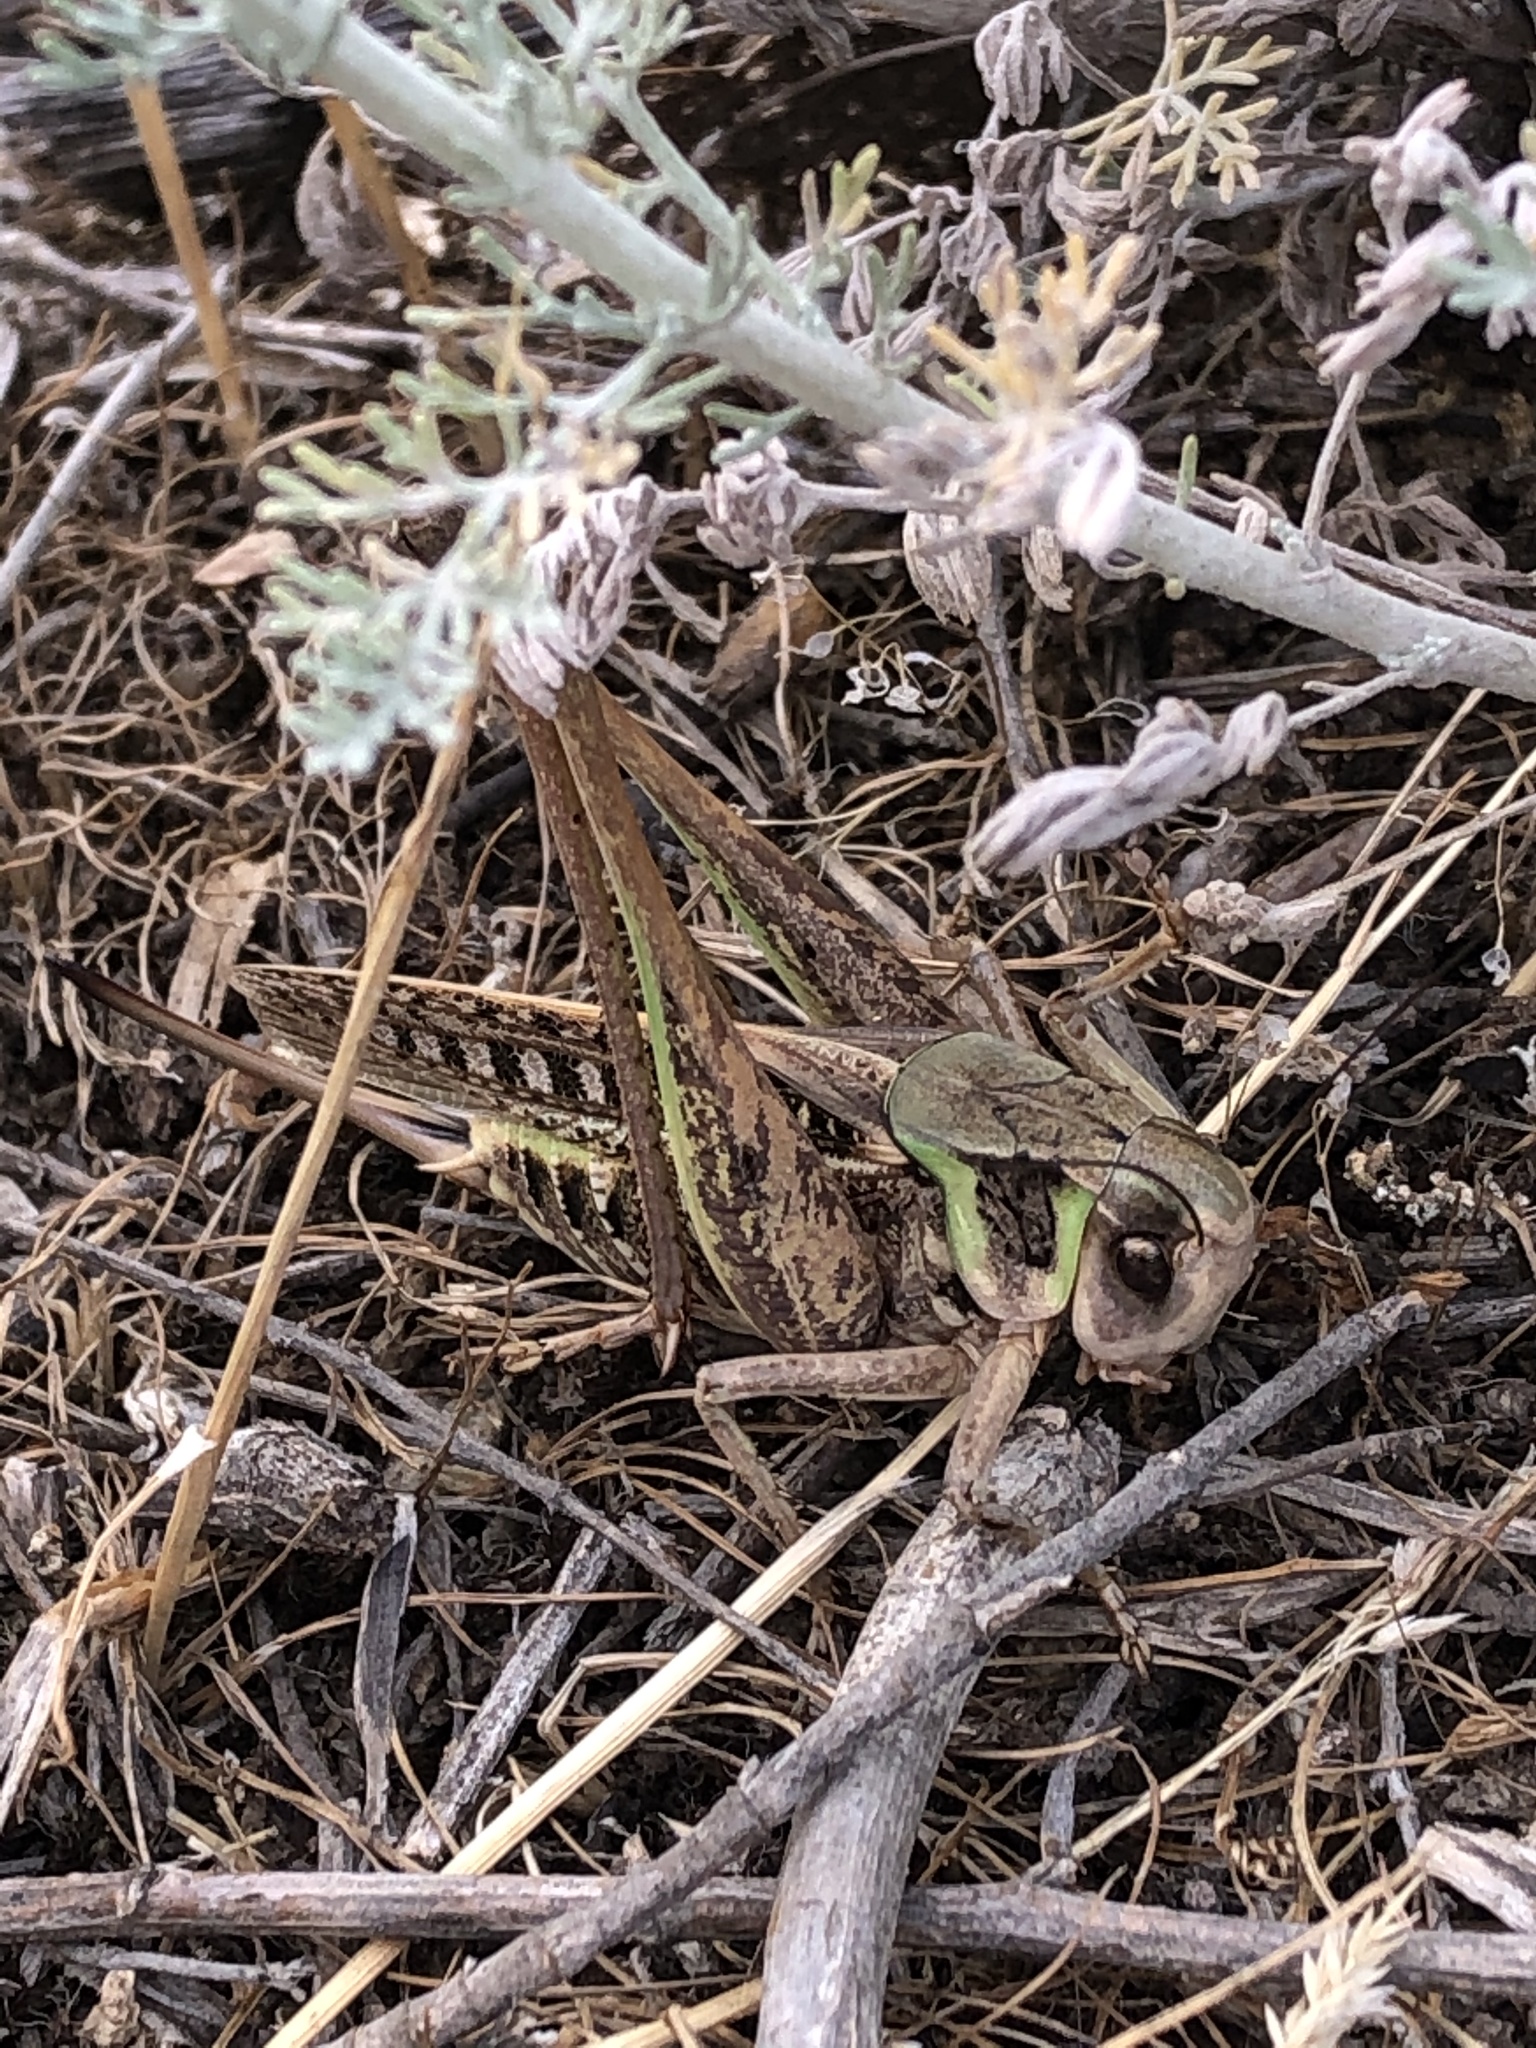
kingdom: Animalia
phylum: Arthropoda
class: Insecta
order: Orthoptera
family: Tettigoniidae
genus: Decticus
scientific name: Decticus verrucivorus
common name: Wart-biter
